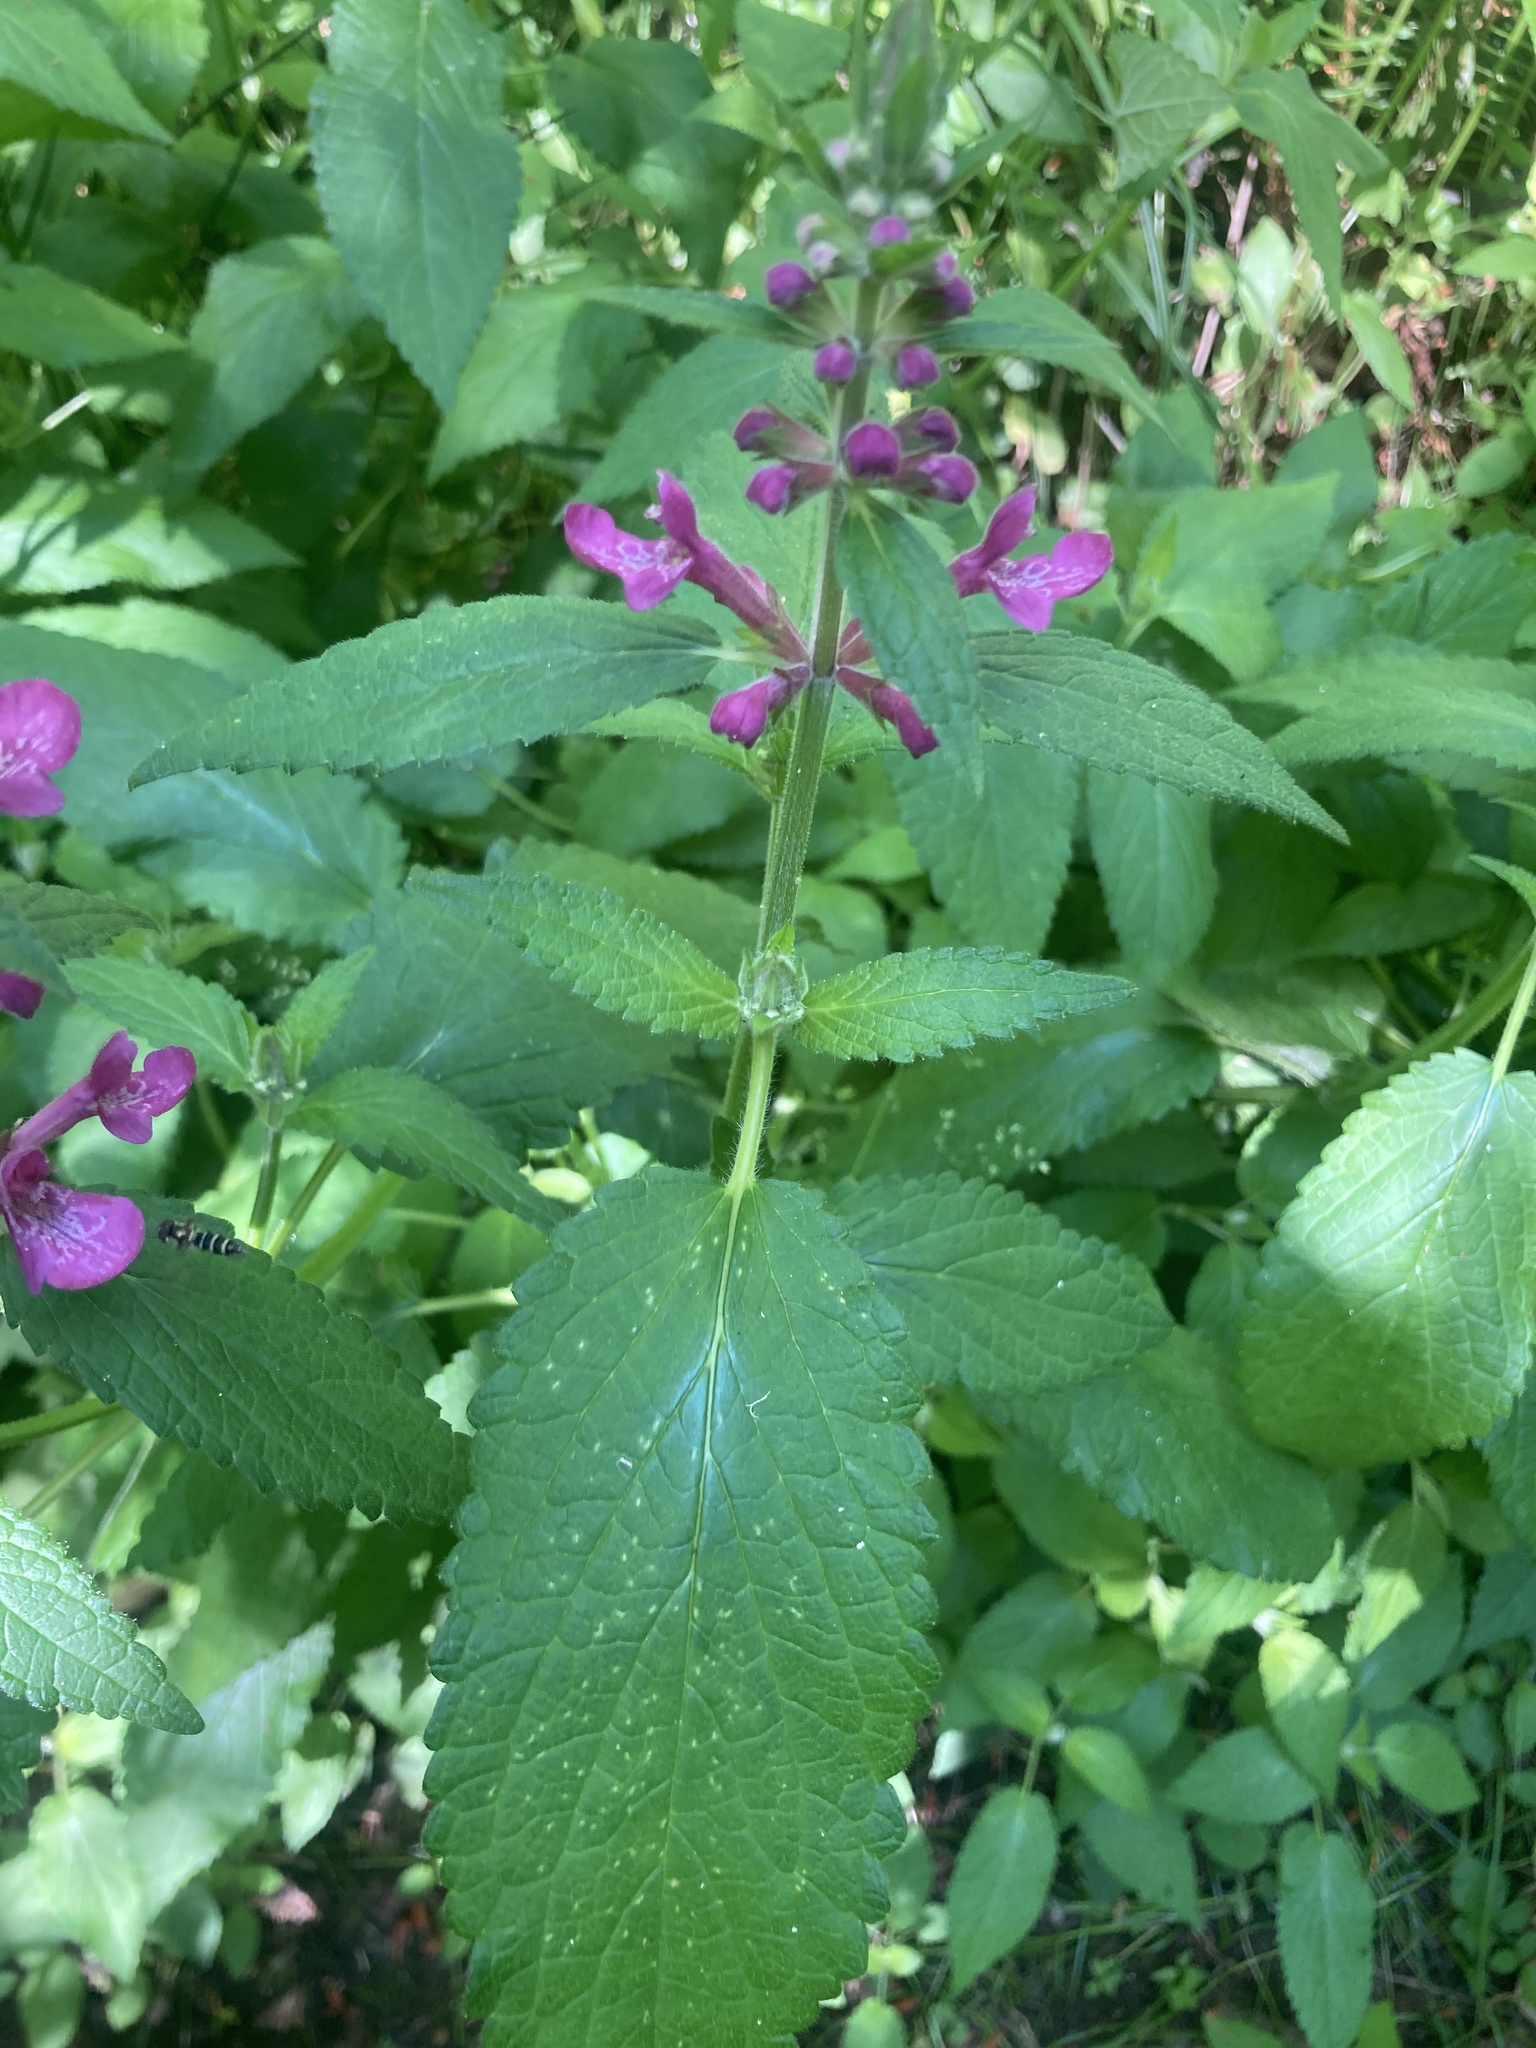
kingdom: Plantae
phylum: Tracheophyta
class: Magnoliopsida
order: Lamiales
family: Lamiaceae
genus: Stachys
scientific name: Stachys chamissonis
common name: Coastal hedge-nettle
